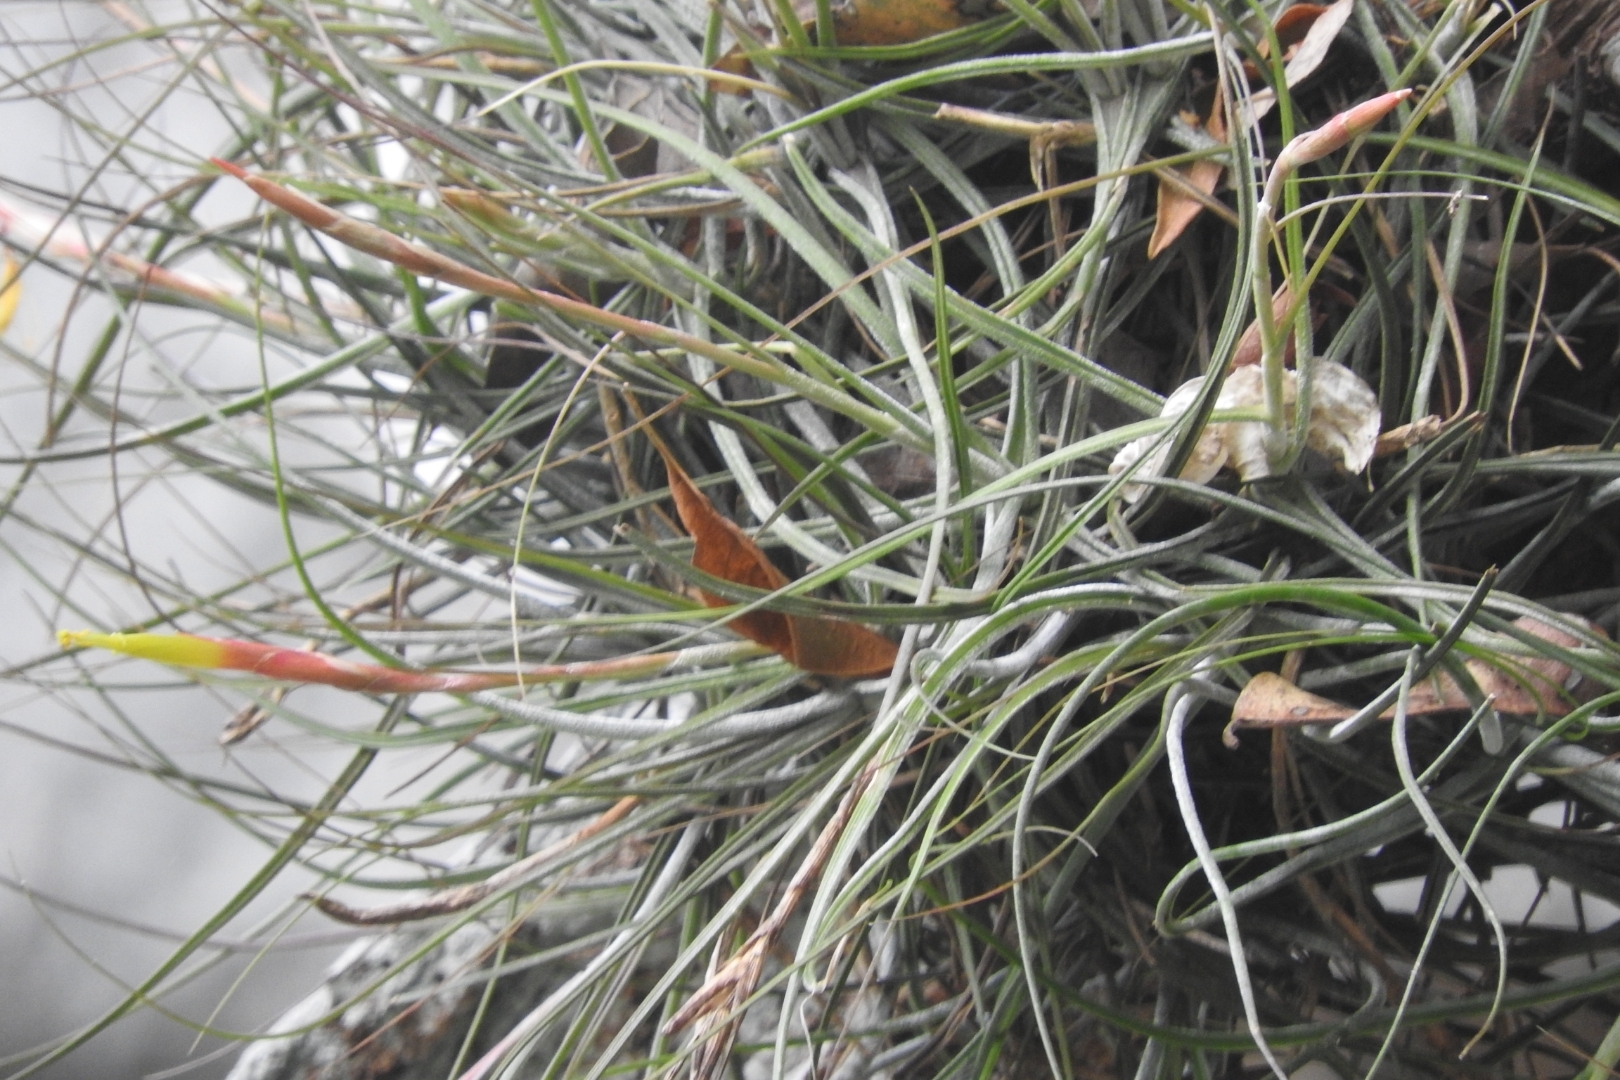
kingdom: Plantae
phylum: Tracheophyta
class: Liliopsida
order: Poales
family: Bromeliaceae
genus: Tillandsia
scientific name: Tillandsia schiedeana
